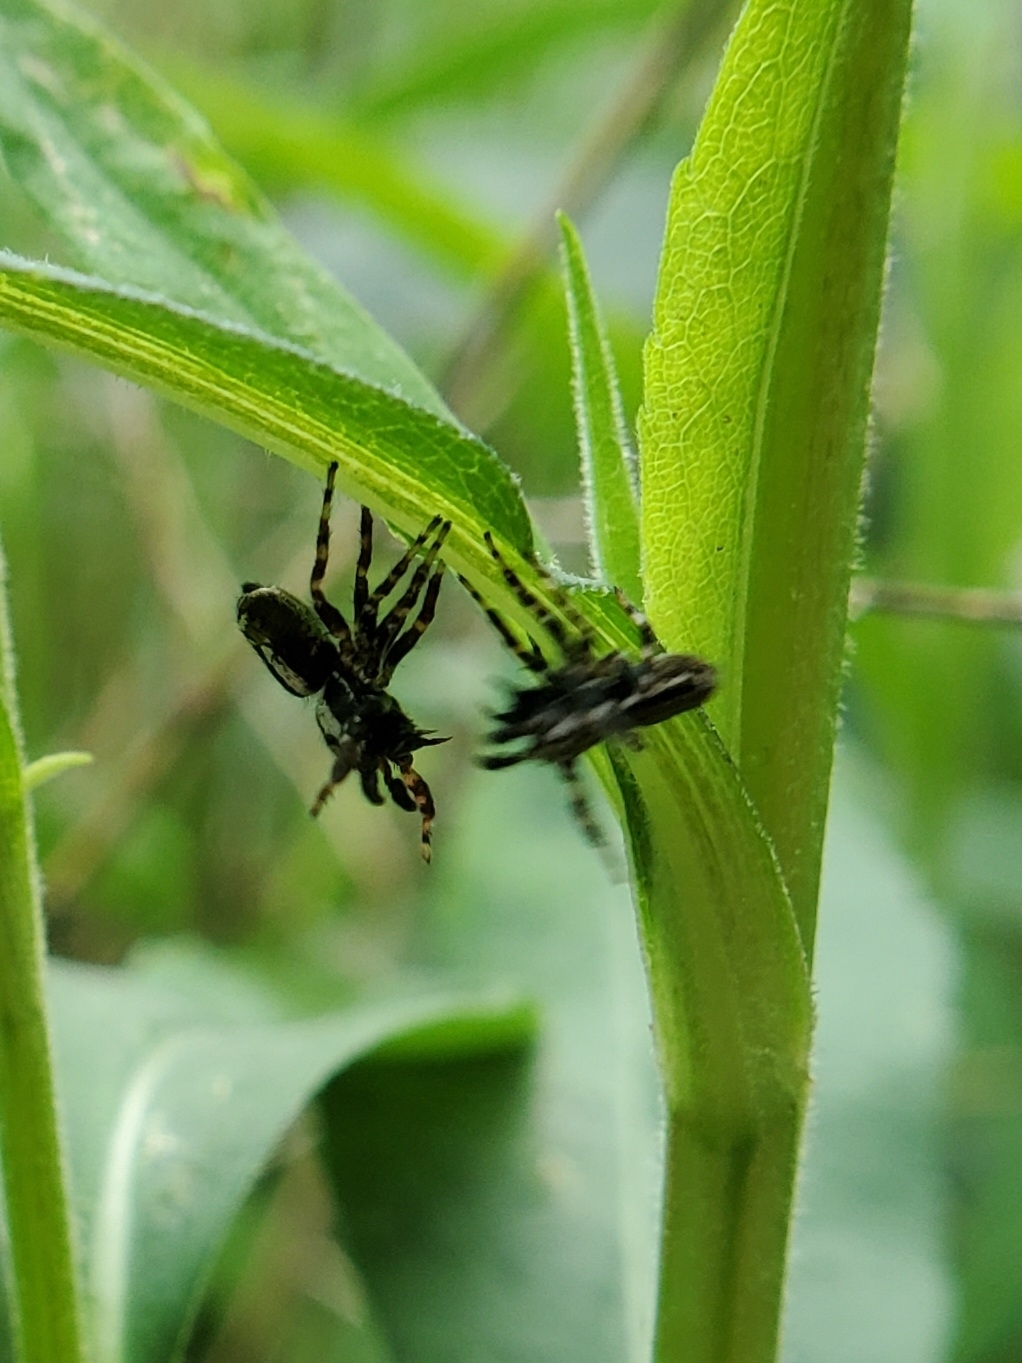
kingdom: Animalia
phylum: Arthropoda
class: Arachnida
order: Araneae
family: Salticidae
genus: Pelegrina
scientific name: Pelegrina galathea
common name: Jumping spiders
